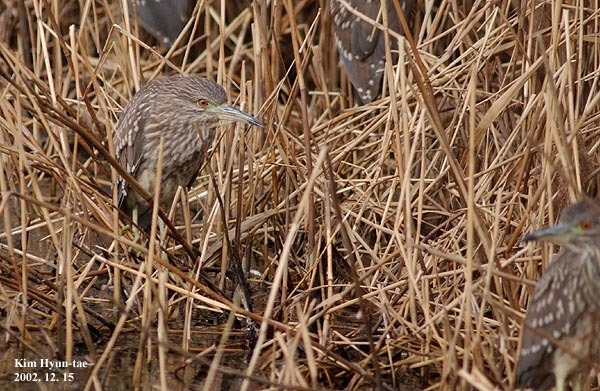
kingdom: Animalia
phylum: Chordata
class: Aves
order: Pelecaniformes
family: Ardeidae
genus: Nycticorax
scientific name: Nycticorax nycticorax
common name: Black-crowned night heron
